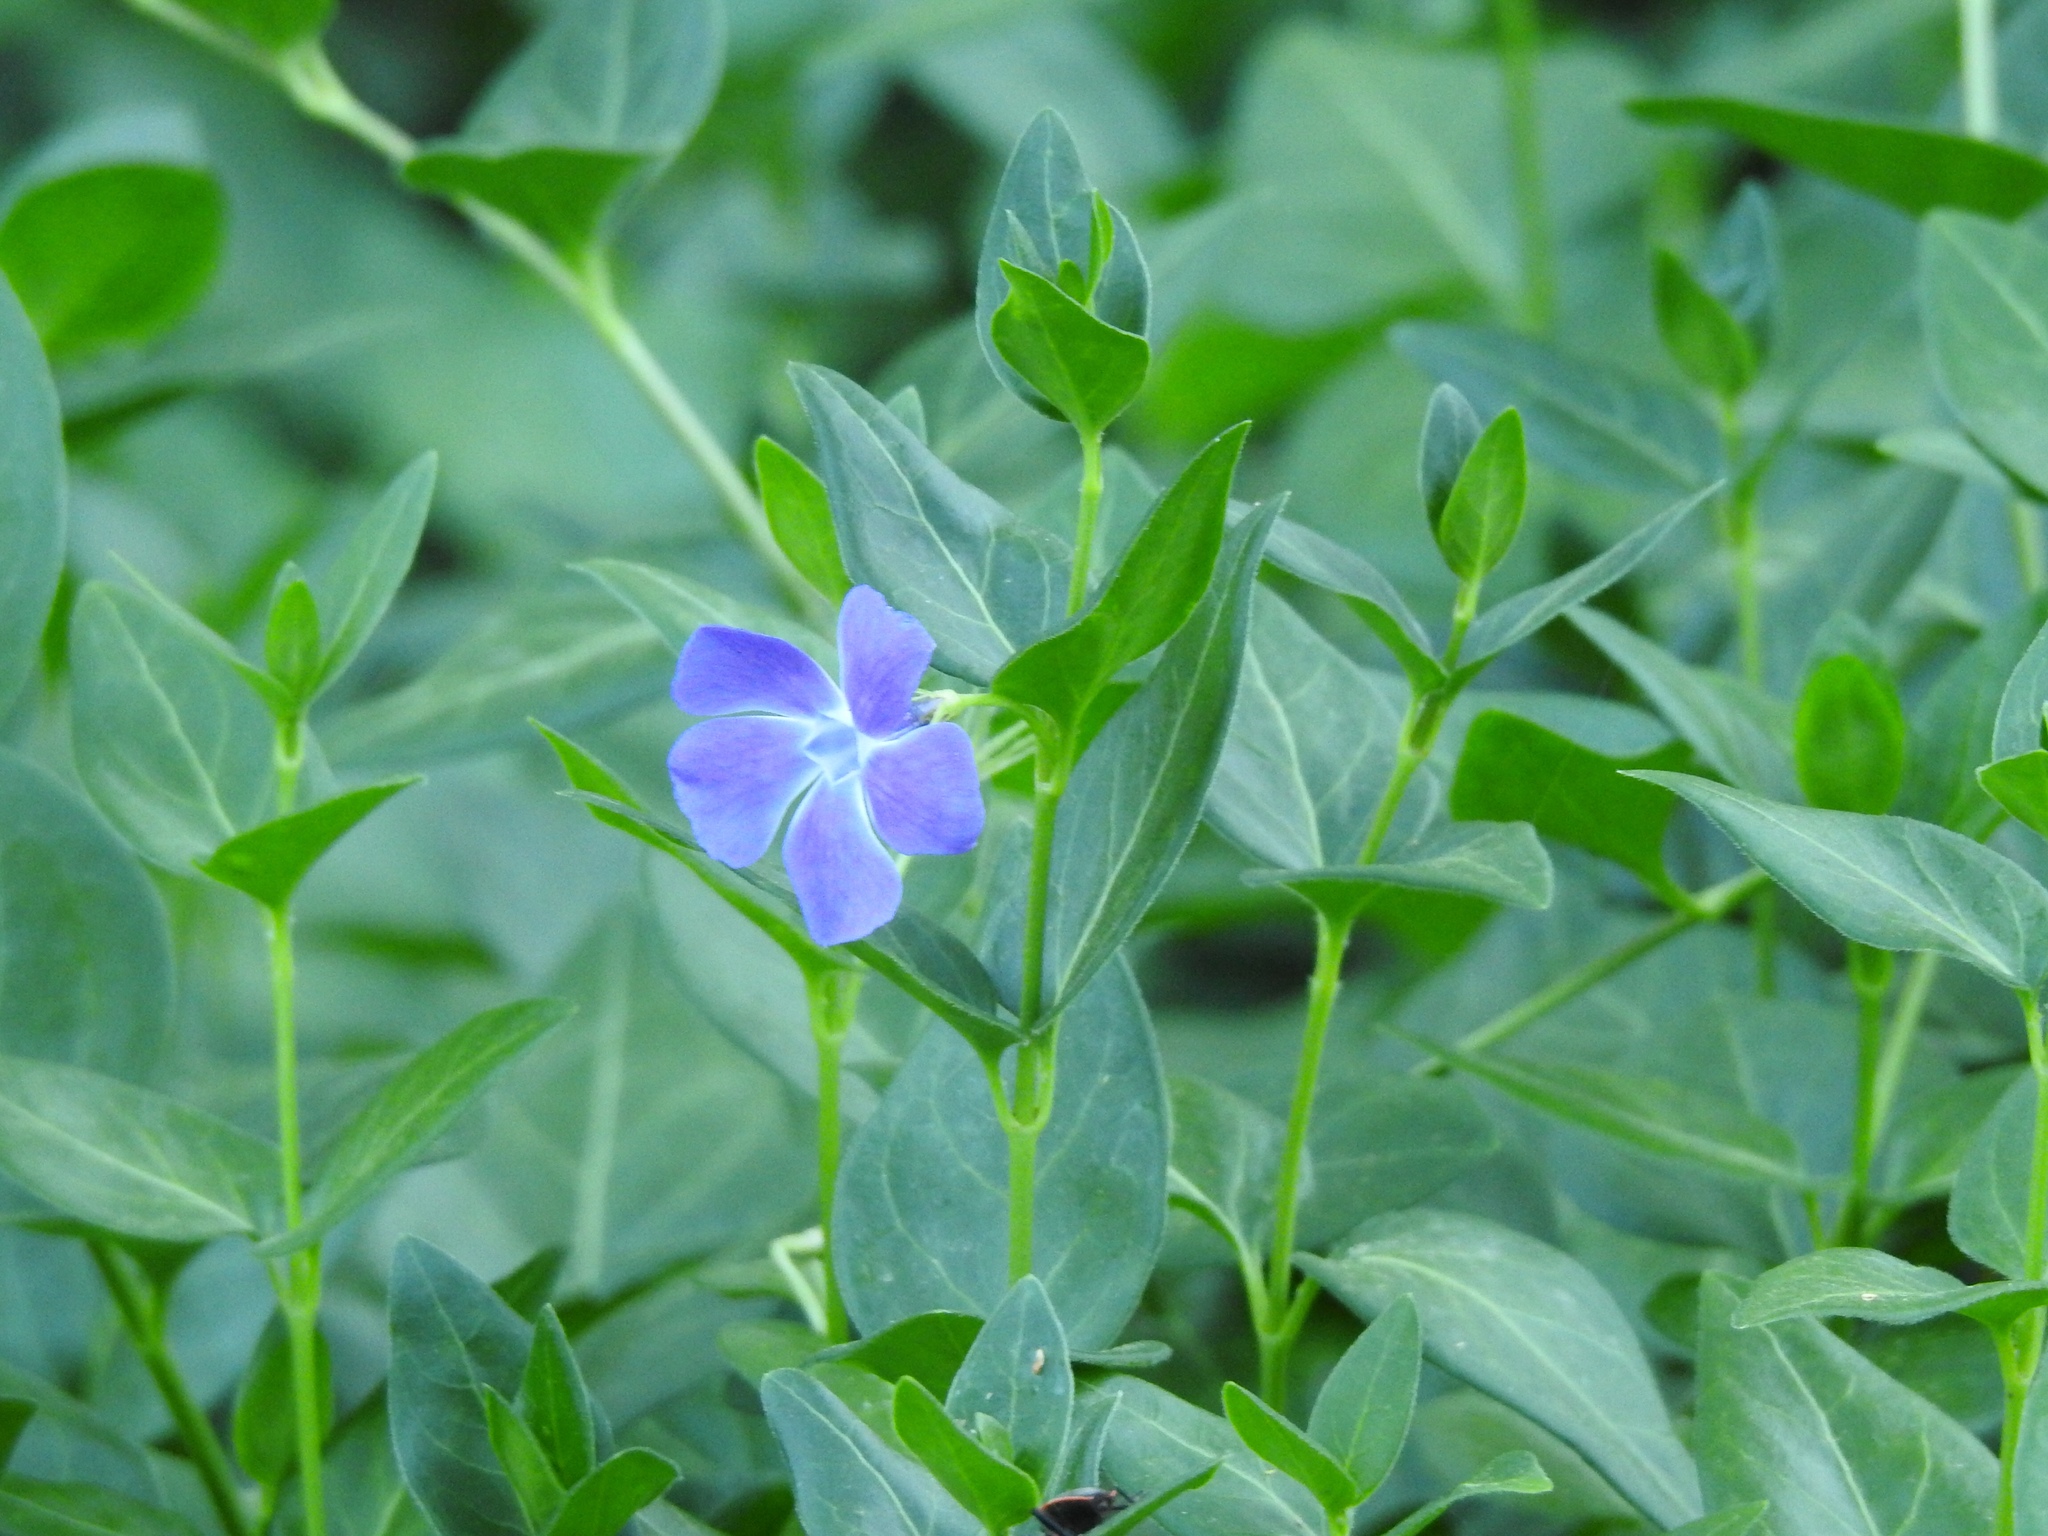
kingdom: Plantae
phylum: Tracheophyta
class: Magnoliopsida
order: Gentianales
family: Apocynaceae
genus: Vinca
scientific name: Vinca major
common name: Greater periwinkle
